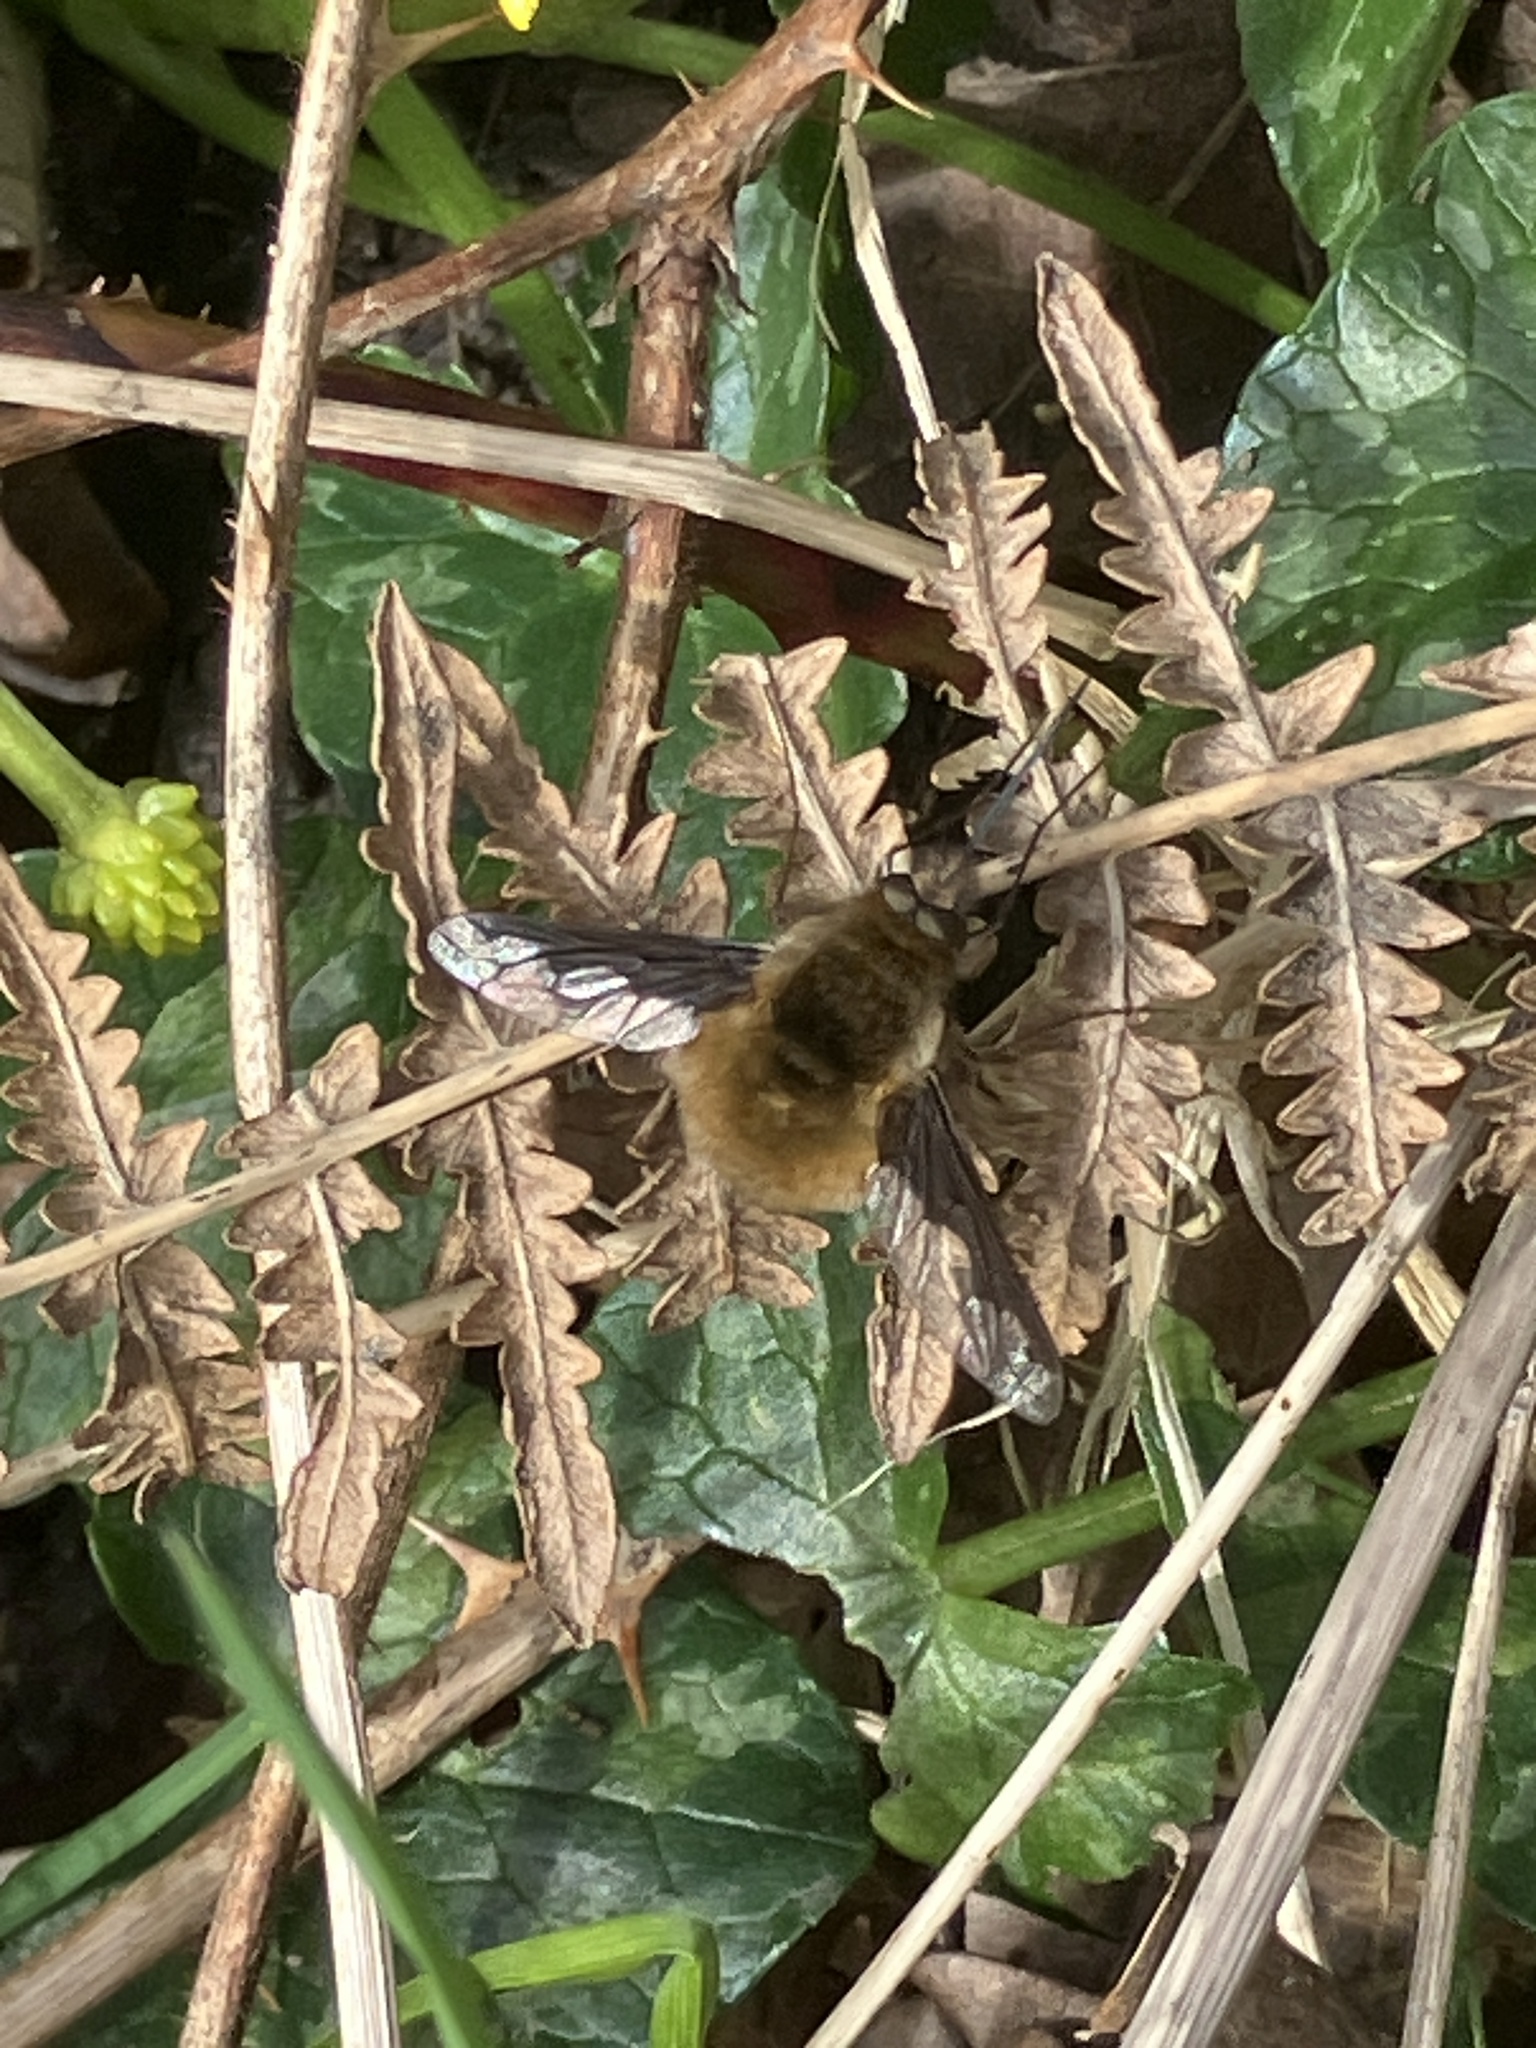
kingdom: Animalia
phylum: Arthropoda
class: Insecta
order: Diptera
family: Bombyliidae
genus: Bombylius
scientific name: Bombylius major
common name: Bee fly
